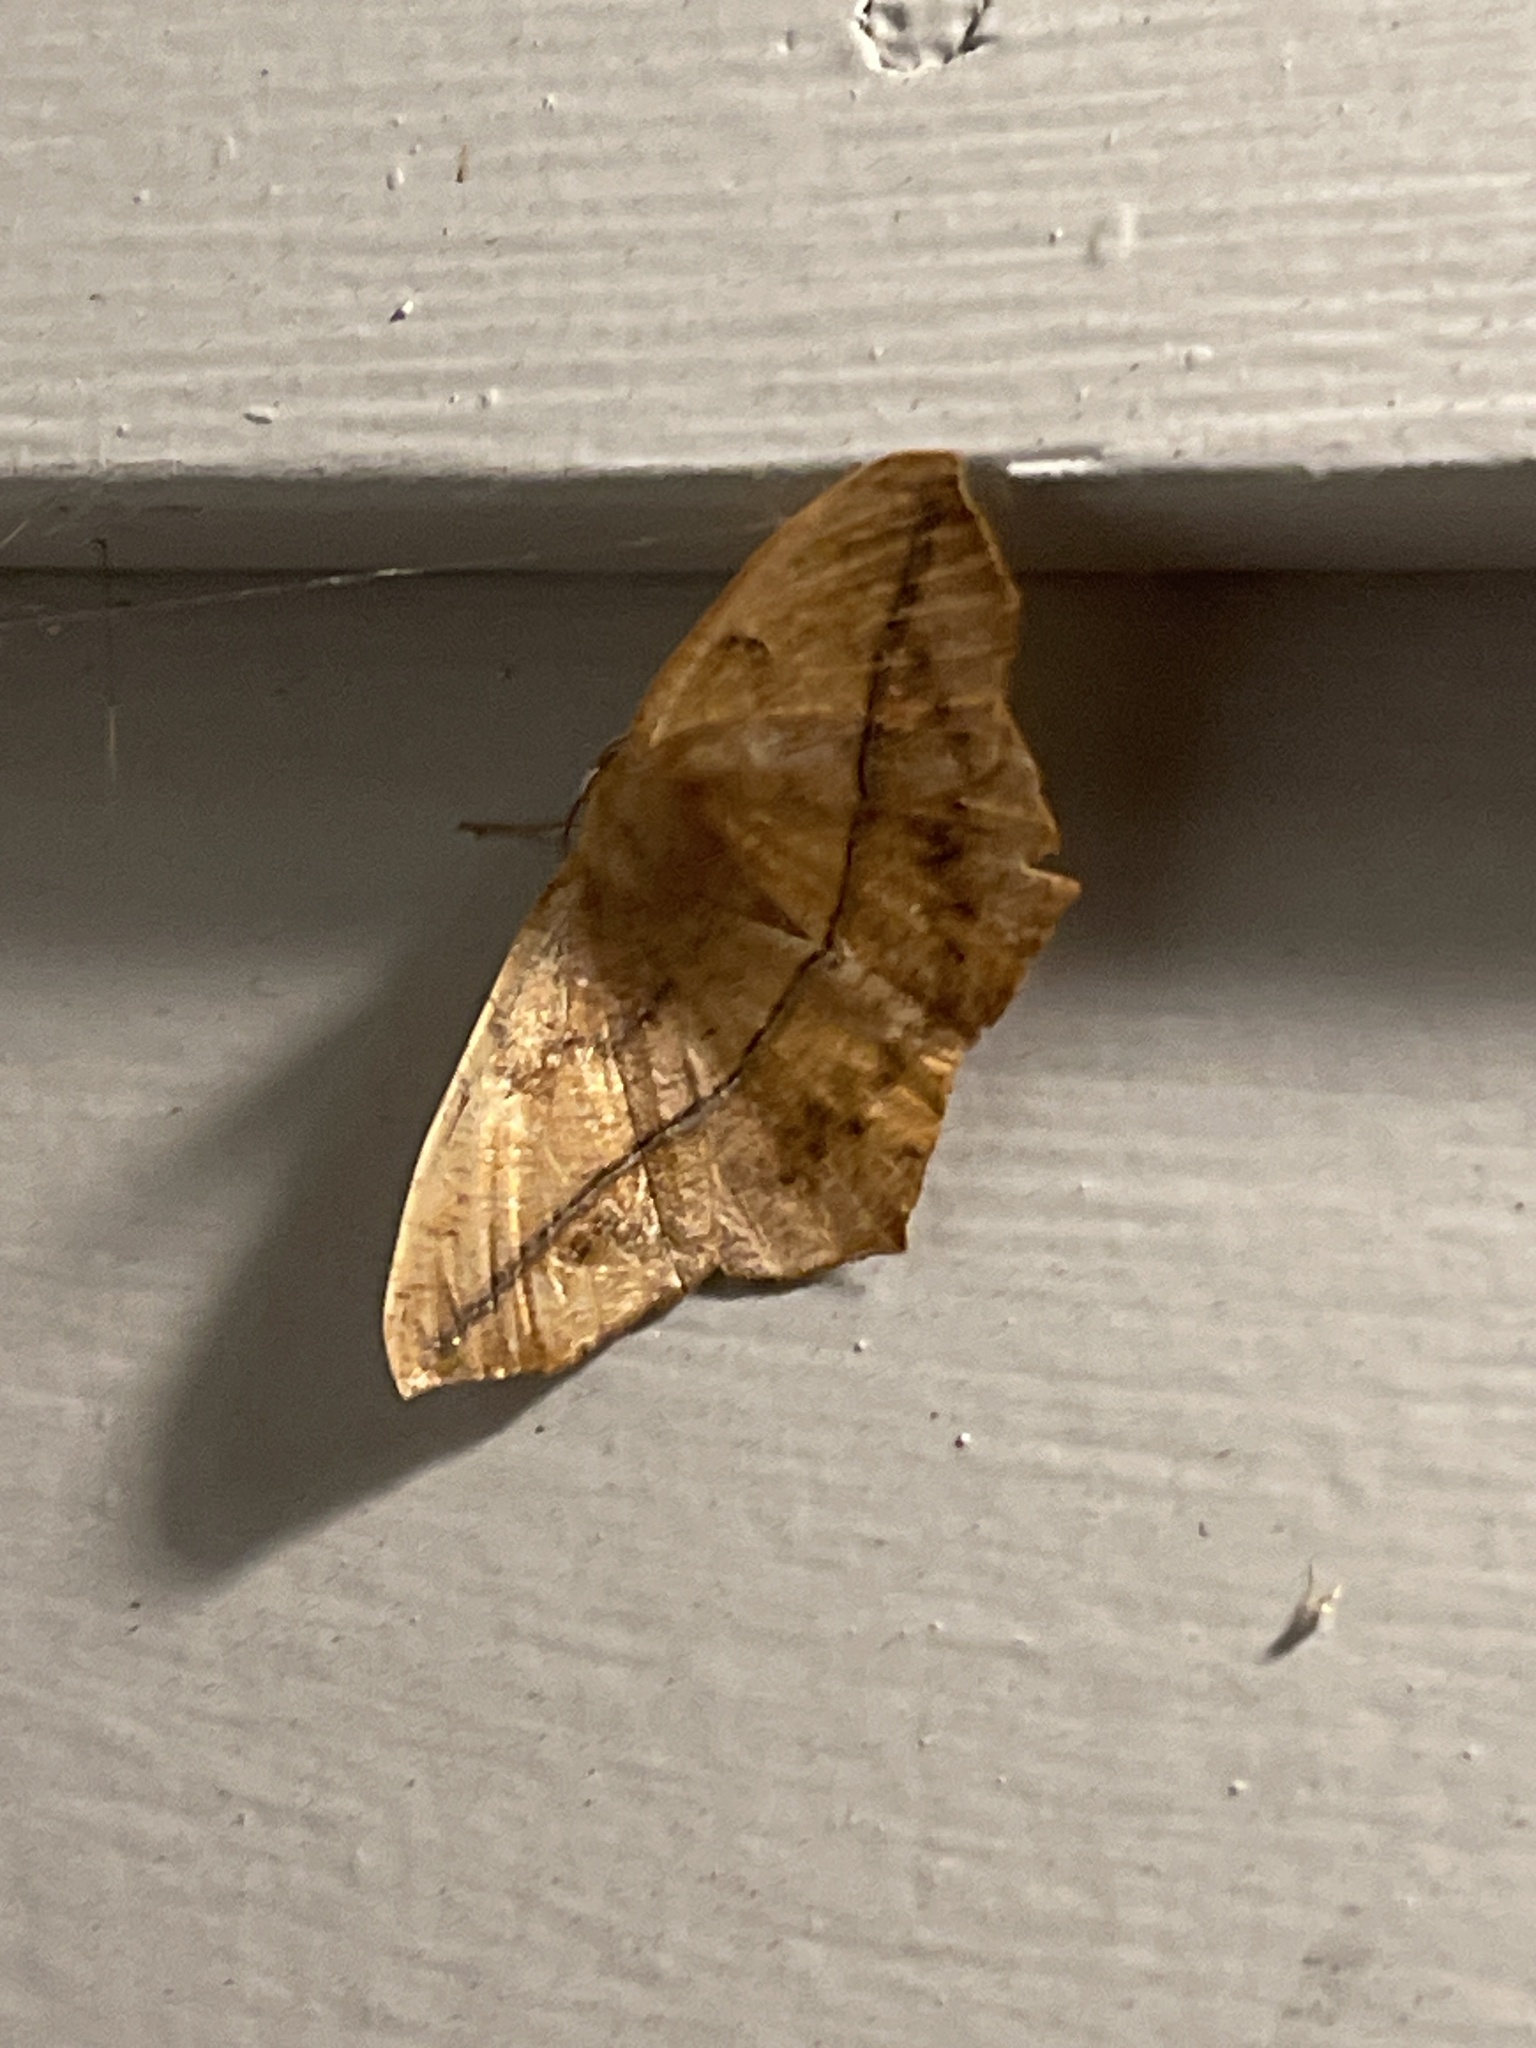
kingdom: Animalia
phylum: Arthropoda
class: Insecta
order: Lepidoptera
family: Geometridae
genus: Prochoerodes
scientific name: Prochoerodes lineola
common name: Large maple spanworm
